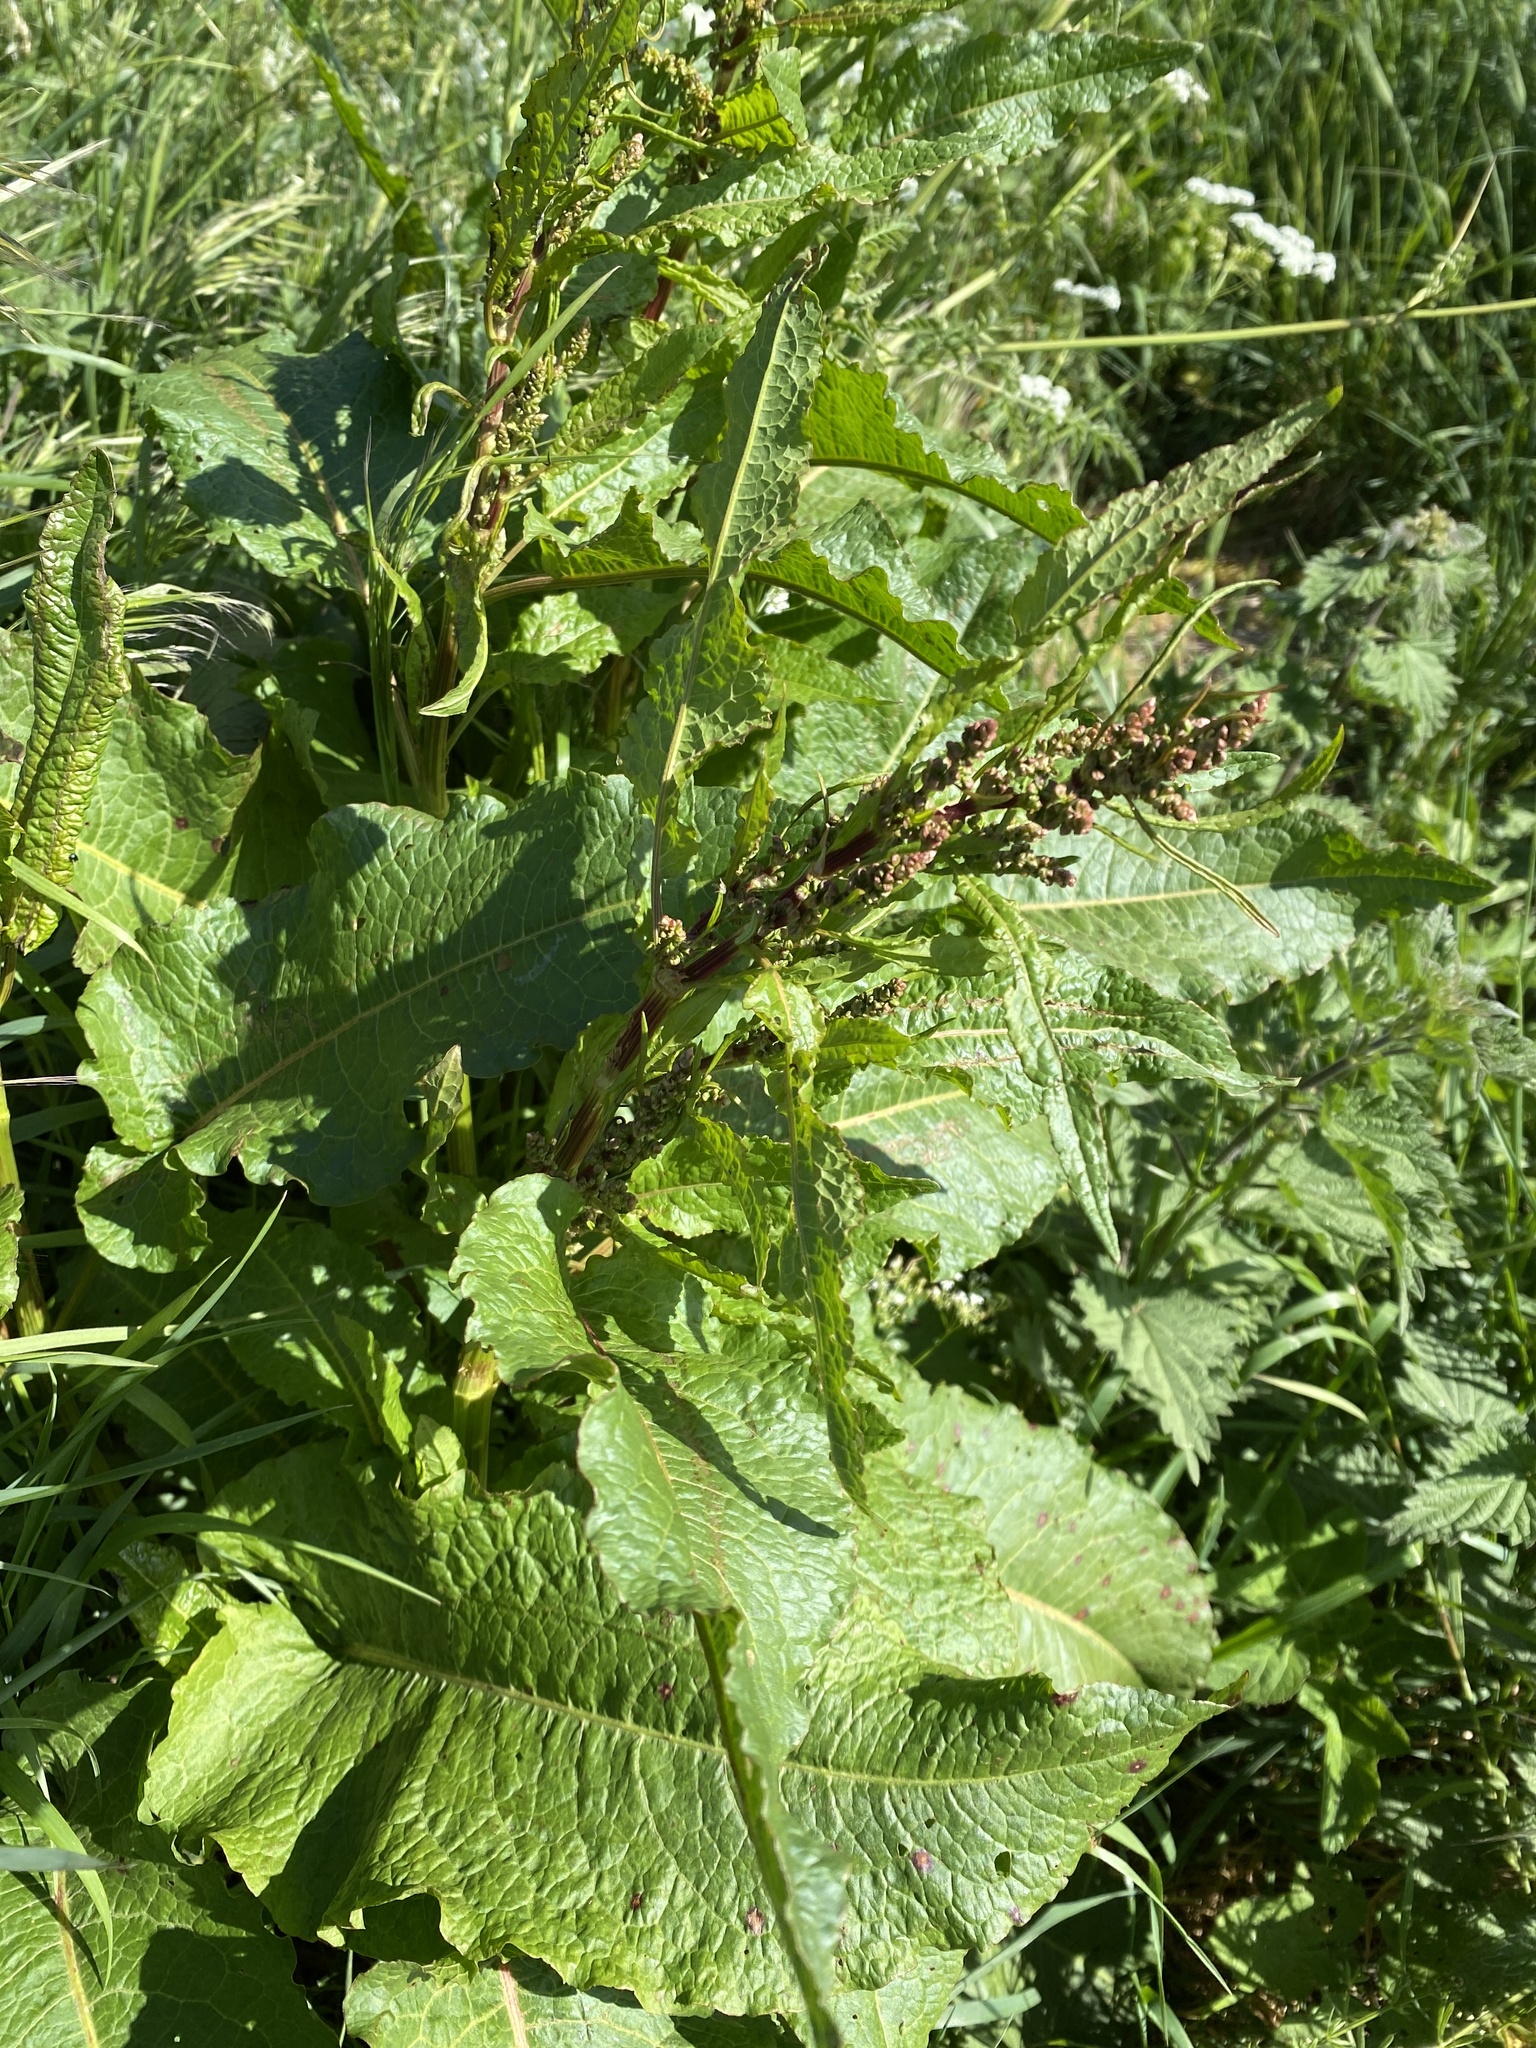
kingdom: Plantae
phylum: Tracheophyta
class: Magnoliopsida
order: Caryophyllales
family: Polygonaceae
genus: Rumex
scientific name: Rumex obtusifolius
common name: Bitter dock
